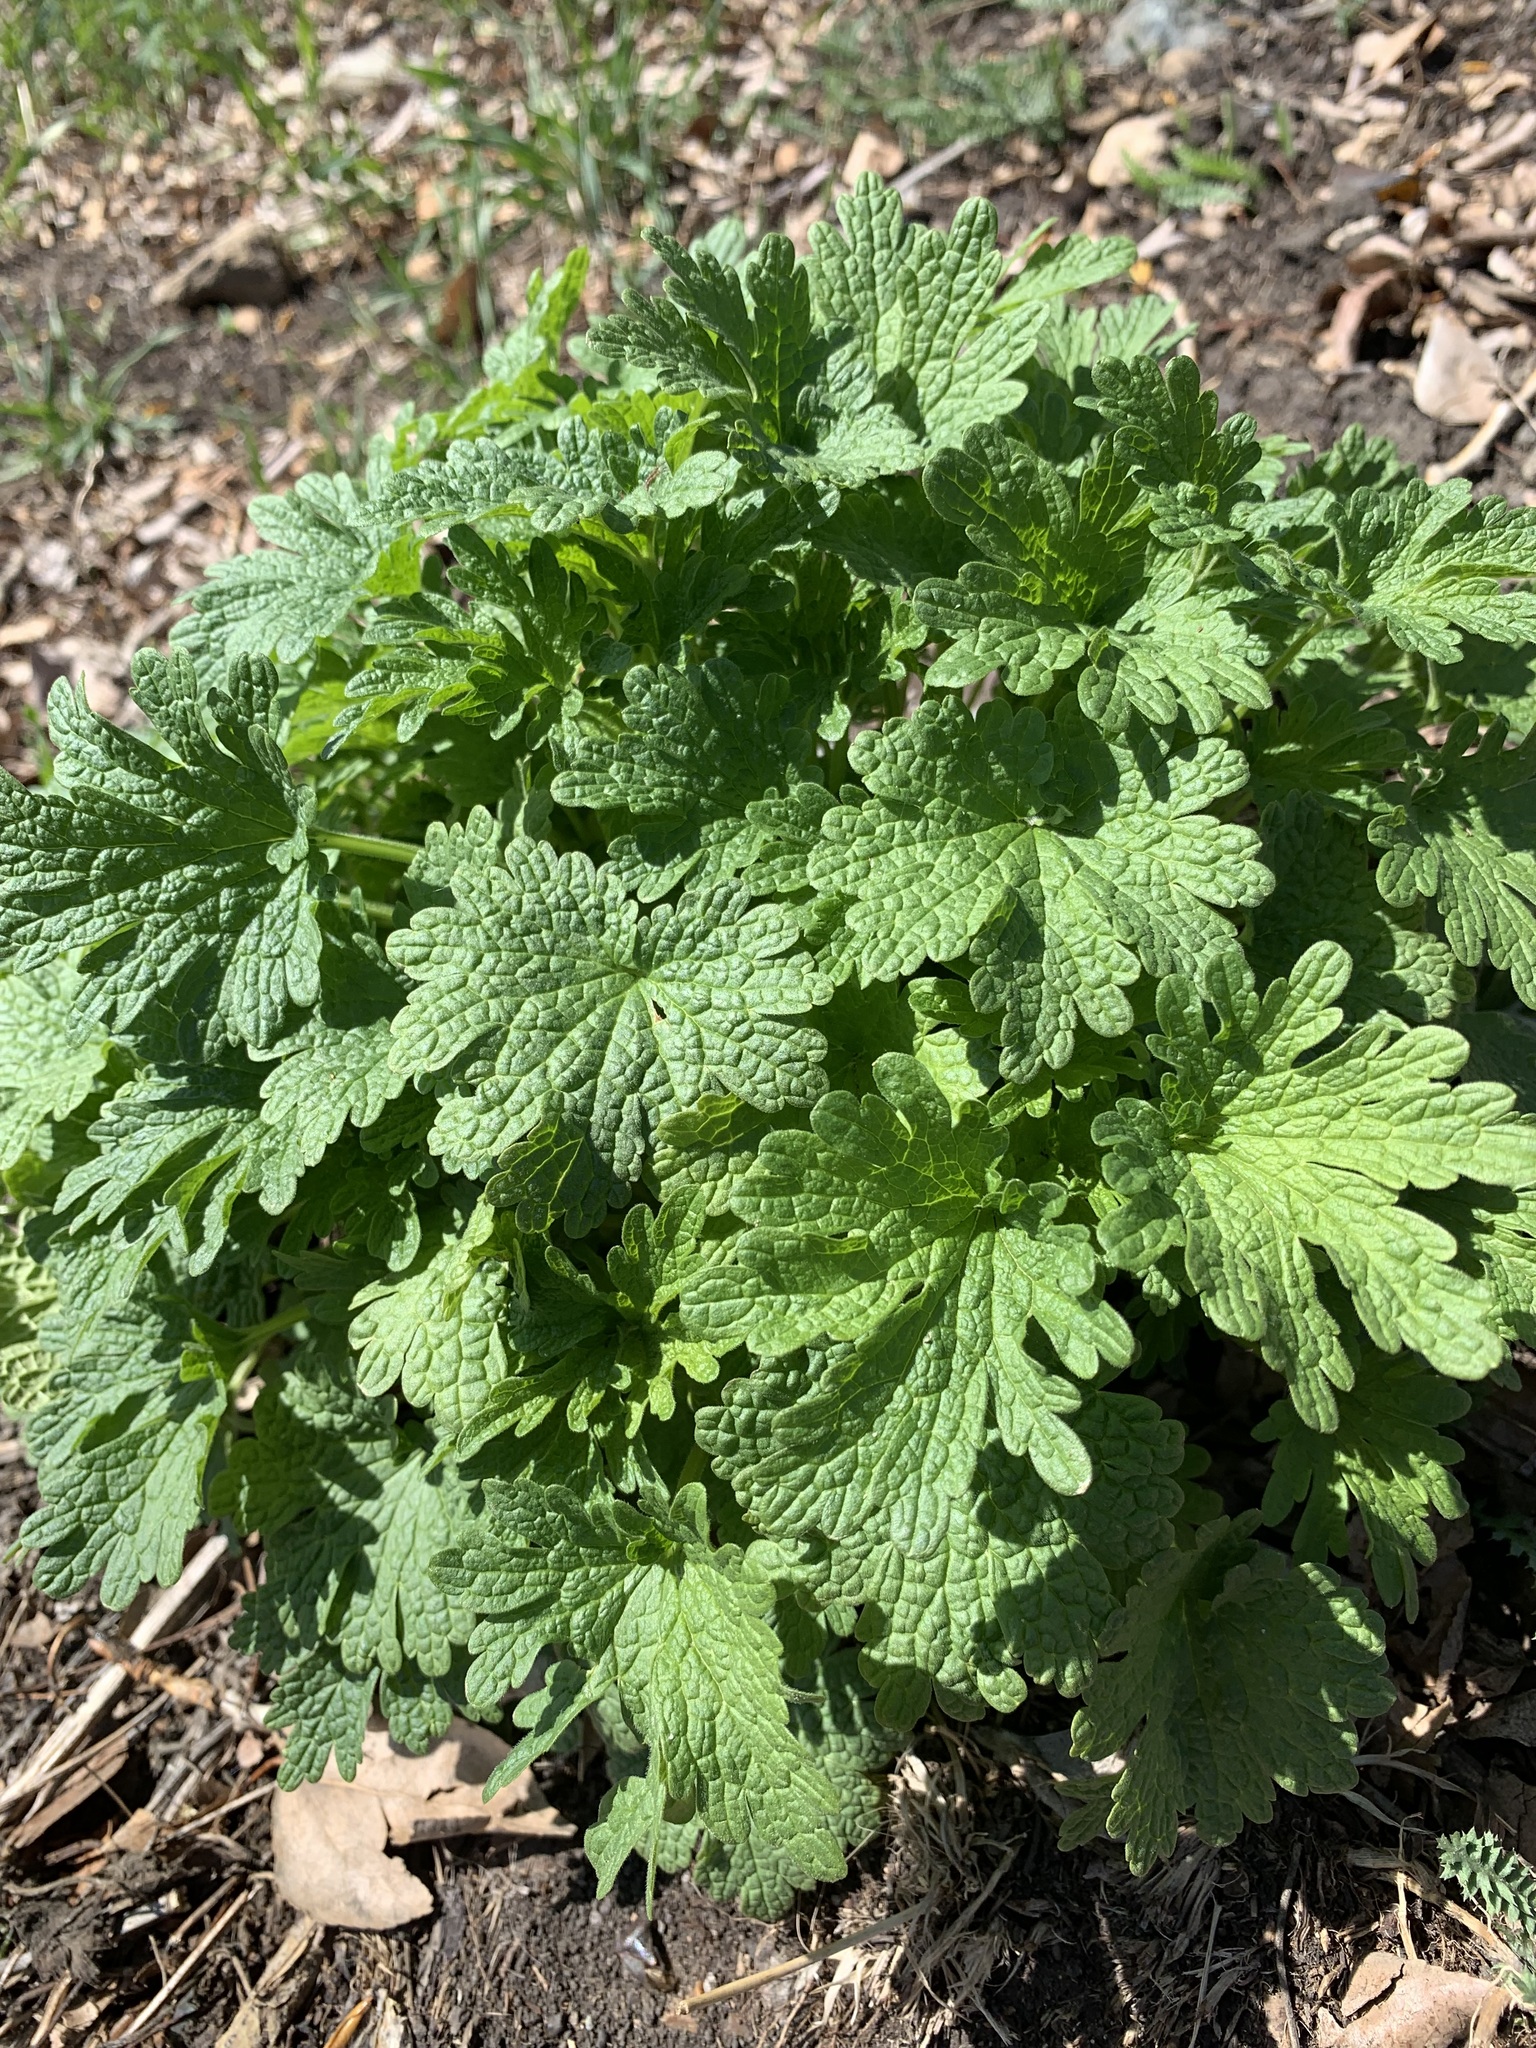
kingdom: Plantae
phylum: Tracheophyta
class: Magnoliopsida
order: Lamiales
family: Lamiaceae
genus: Leonurus
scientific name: Leonurus quinquelobatus
